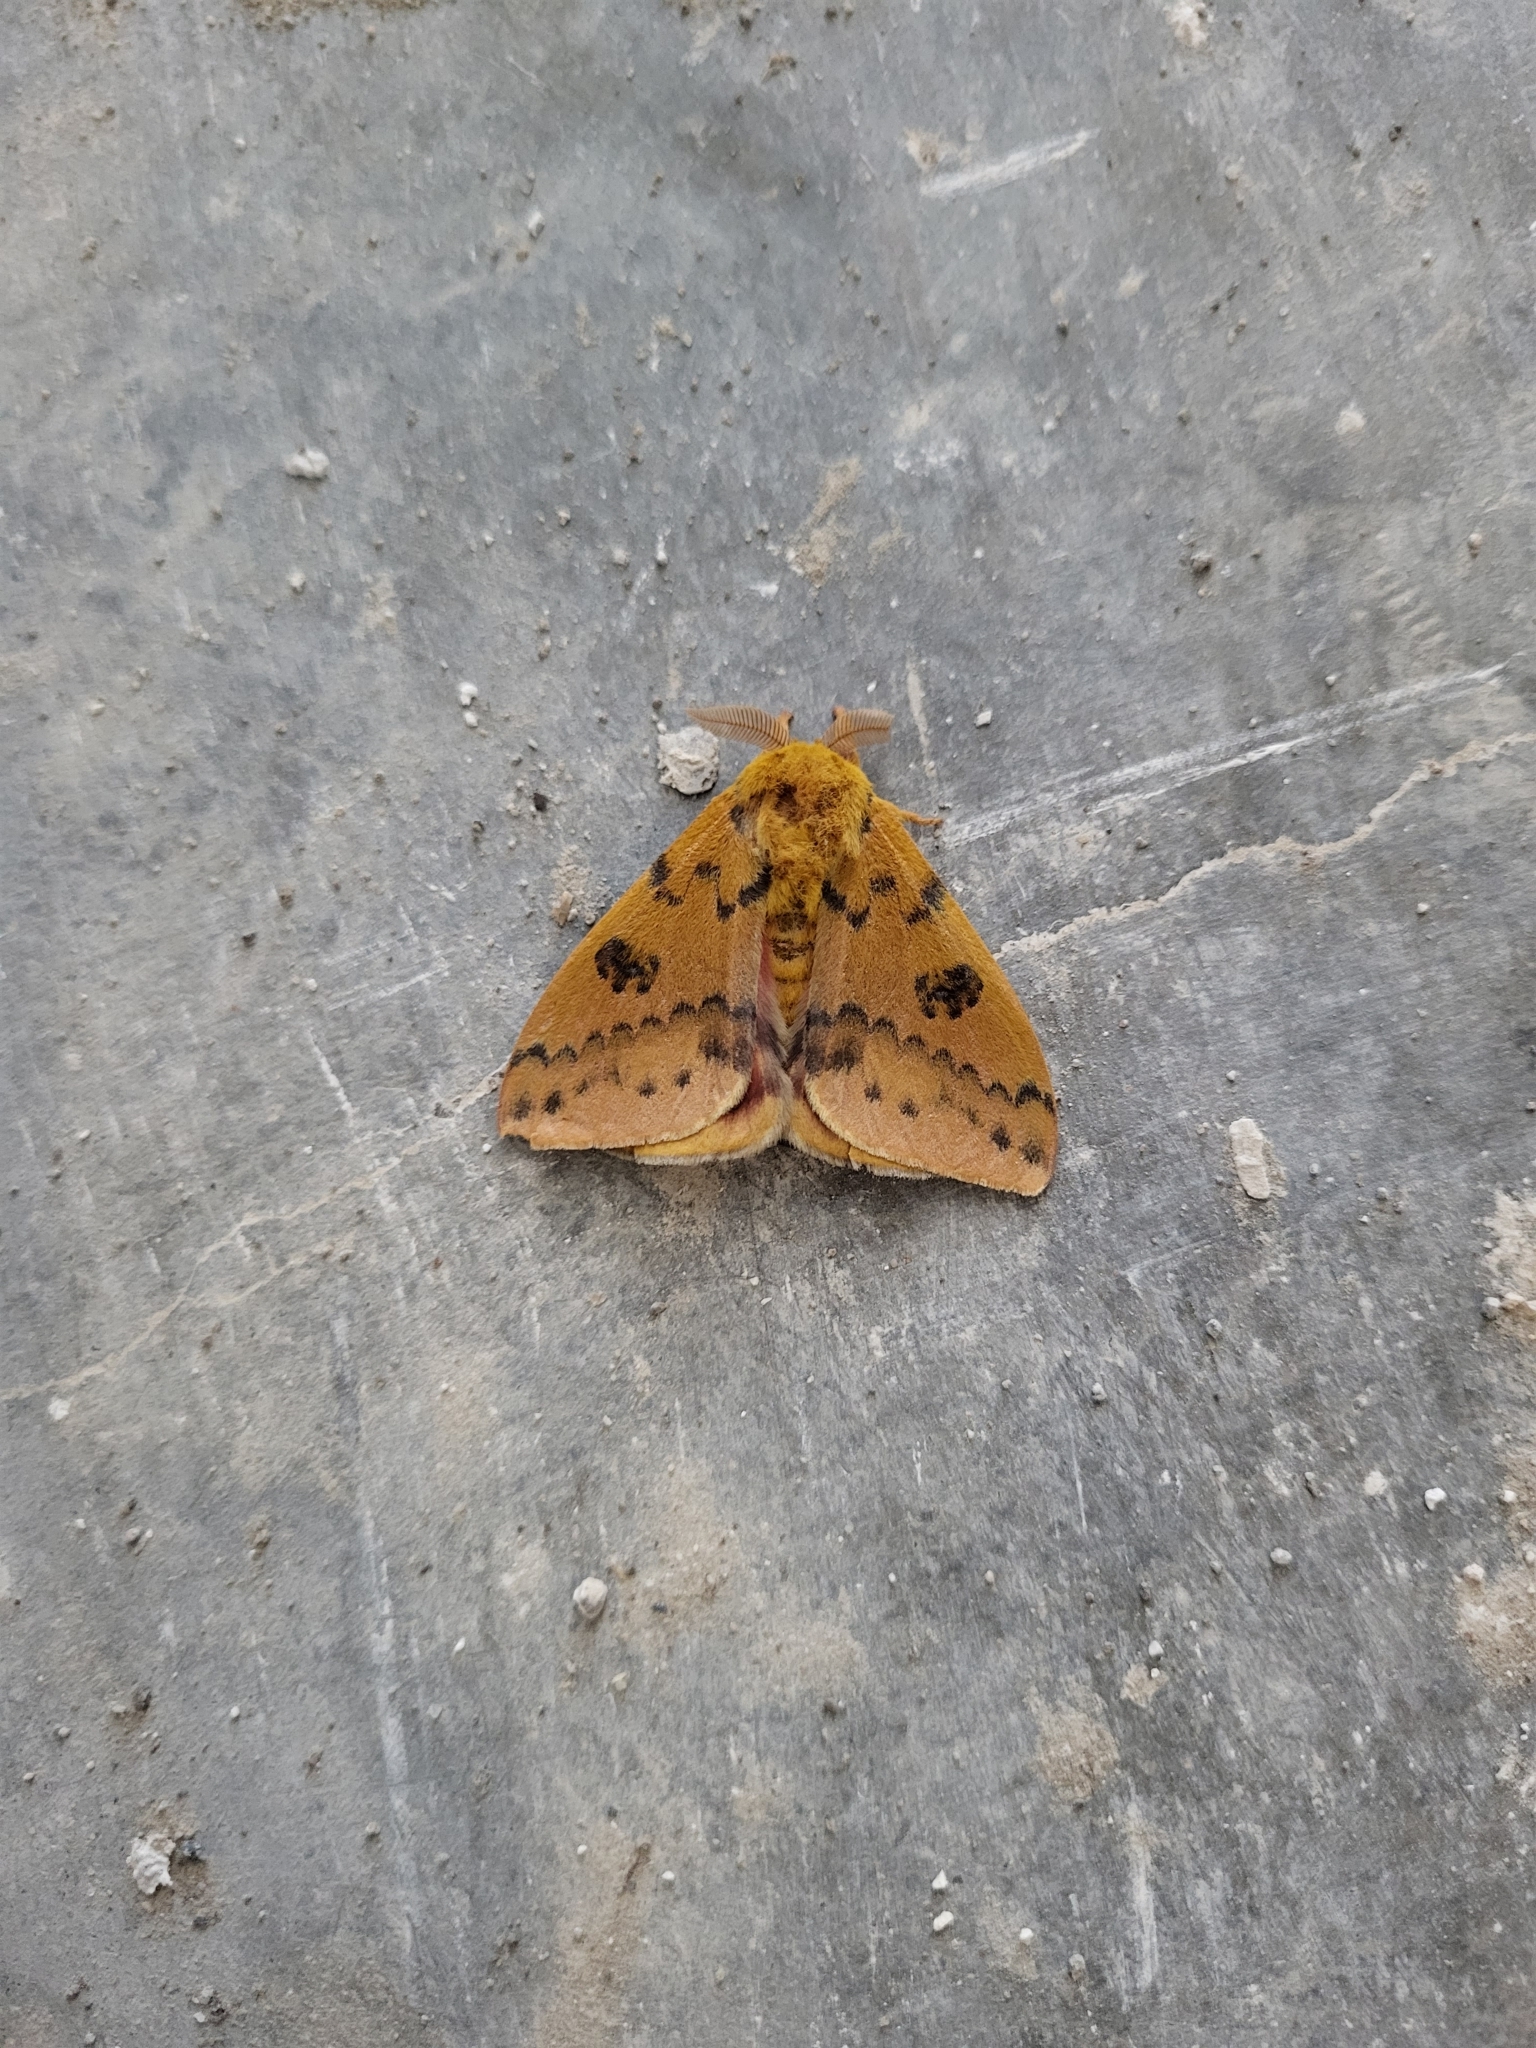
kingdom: Animalia
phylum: Arthropoda
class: Insecta
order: Lepidoptera
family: Saturniidae
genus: Automeris
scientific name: Automeris io
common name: Io moth
